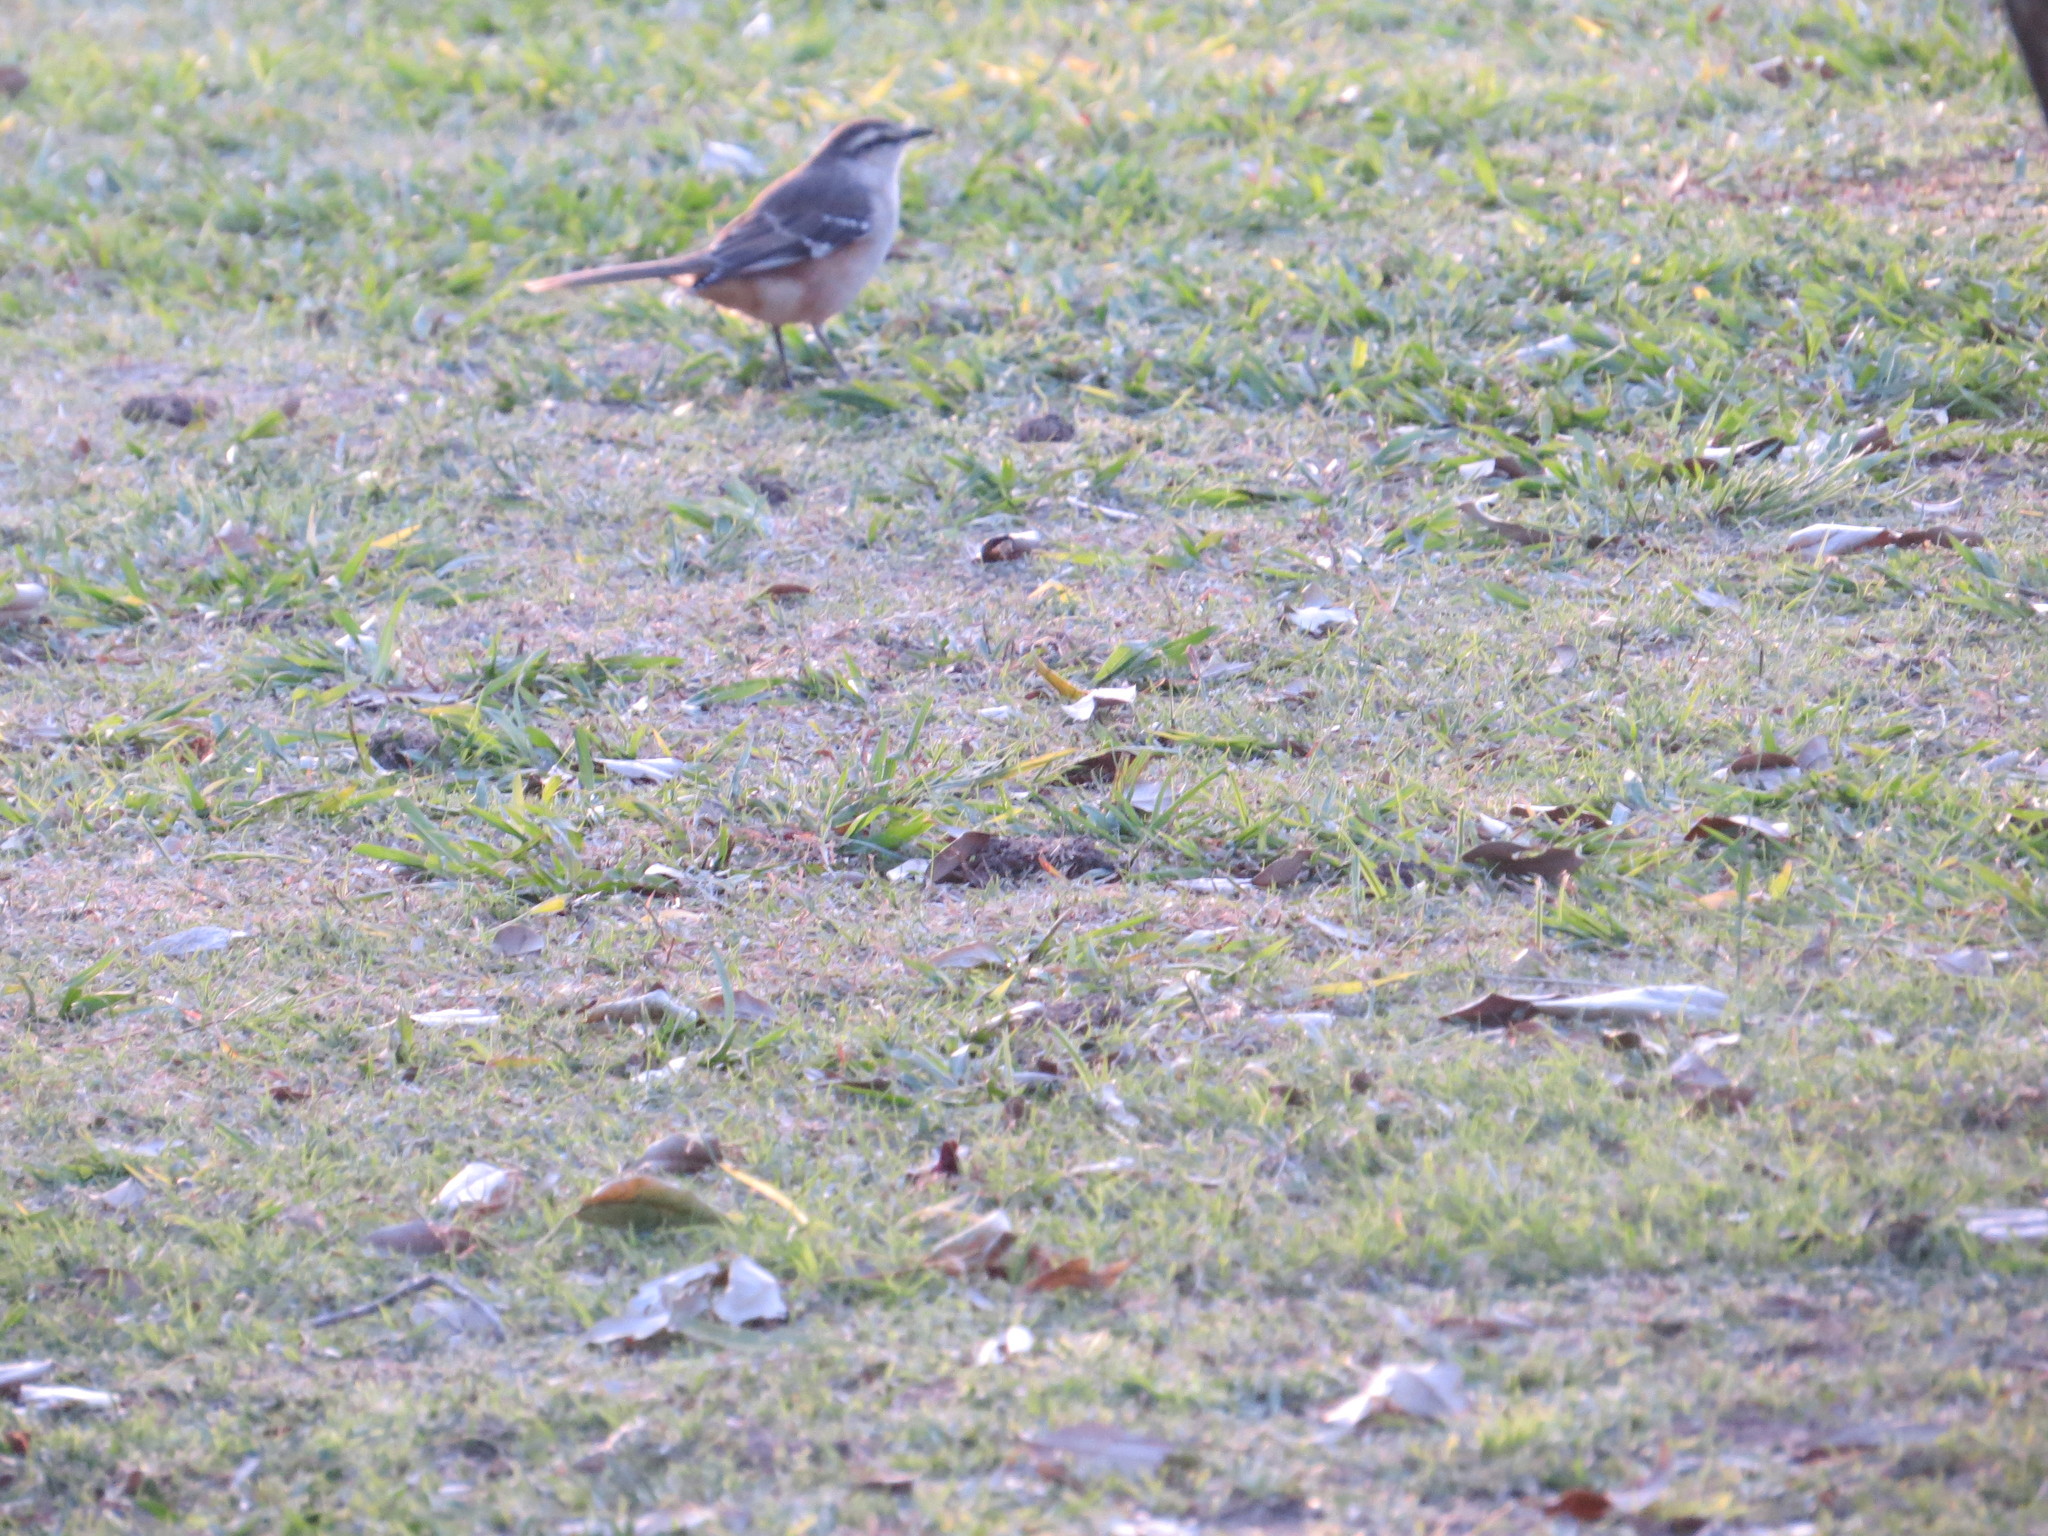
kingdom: Animalia
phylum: Chordata
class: Aves
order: Passeriformes
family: Mimidae
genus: Mimus
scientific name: Mimus saturninus
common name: Chalk-browed mockingbird
